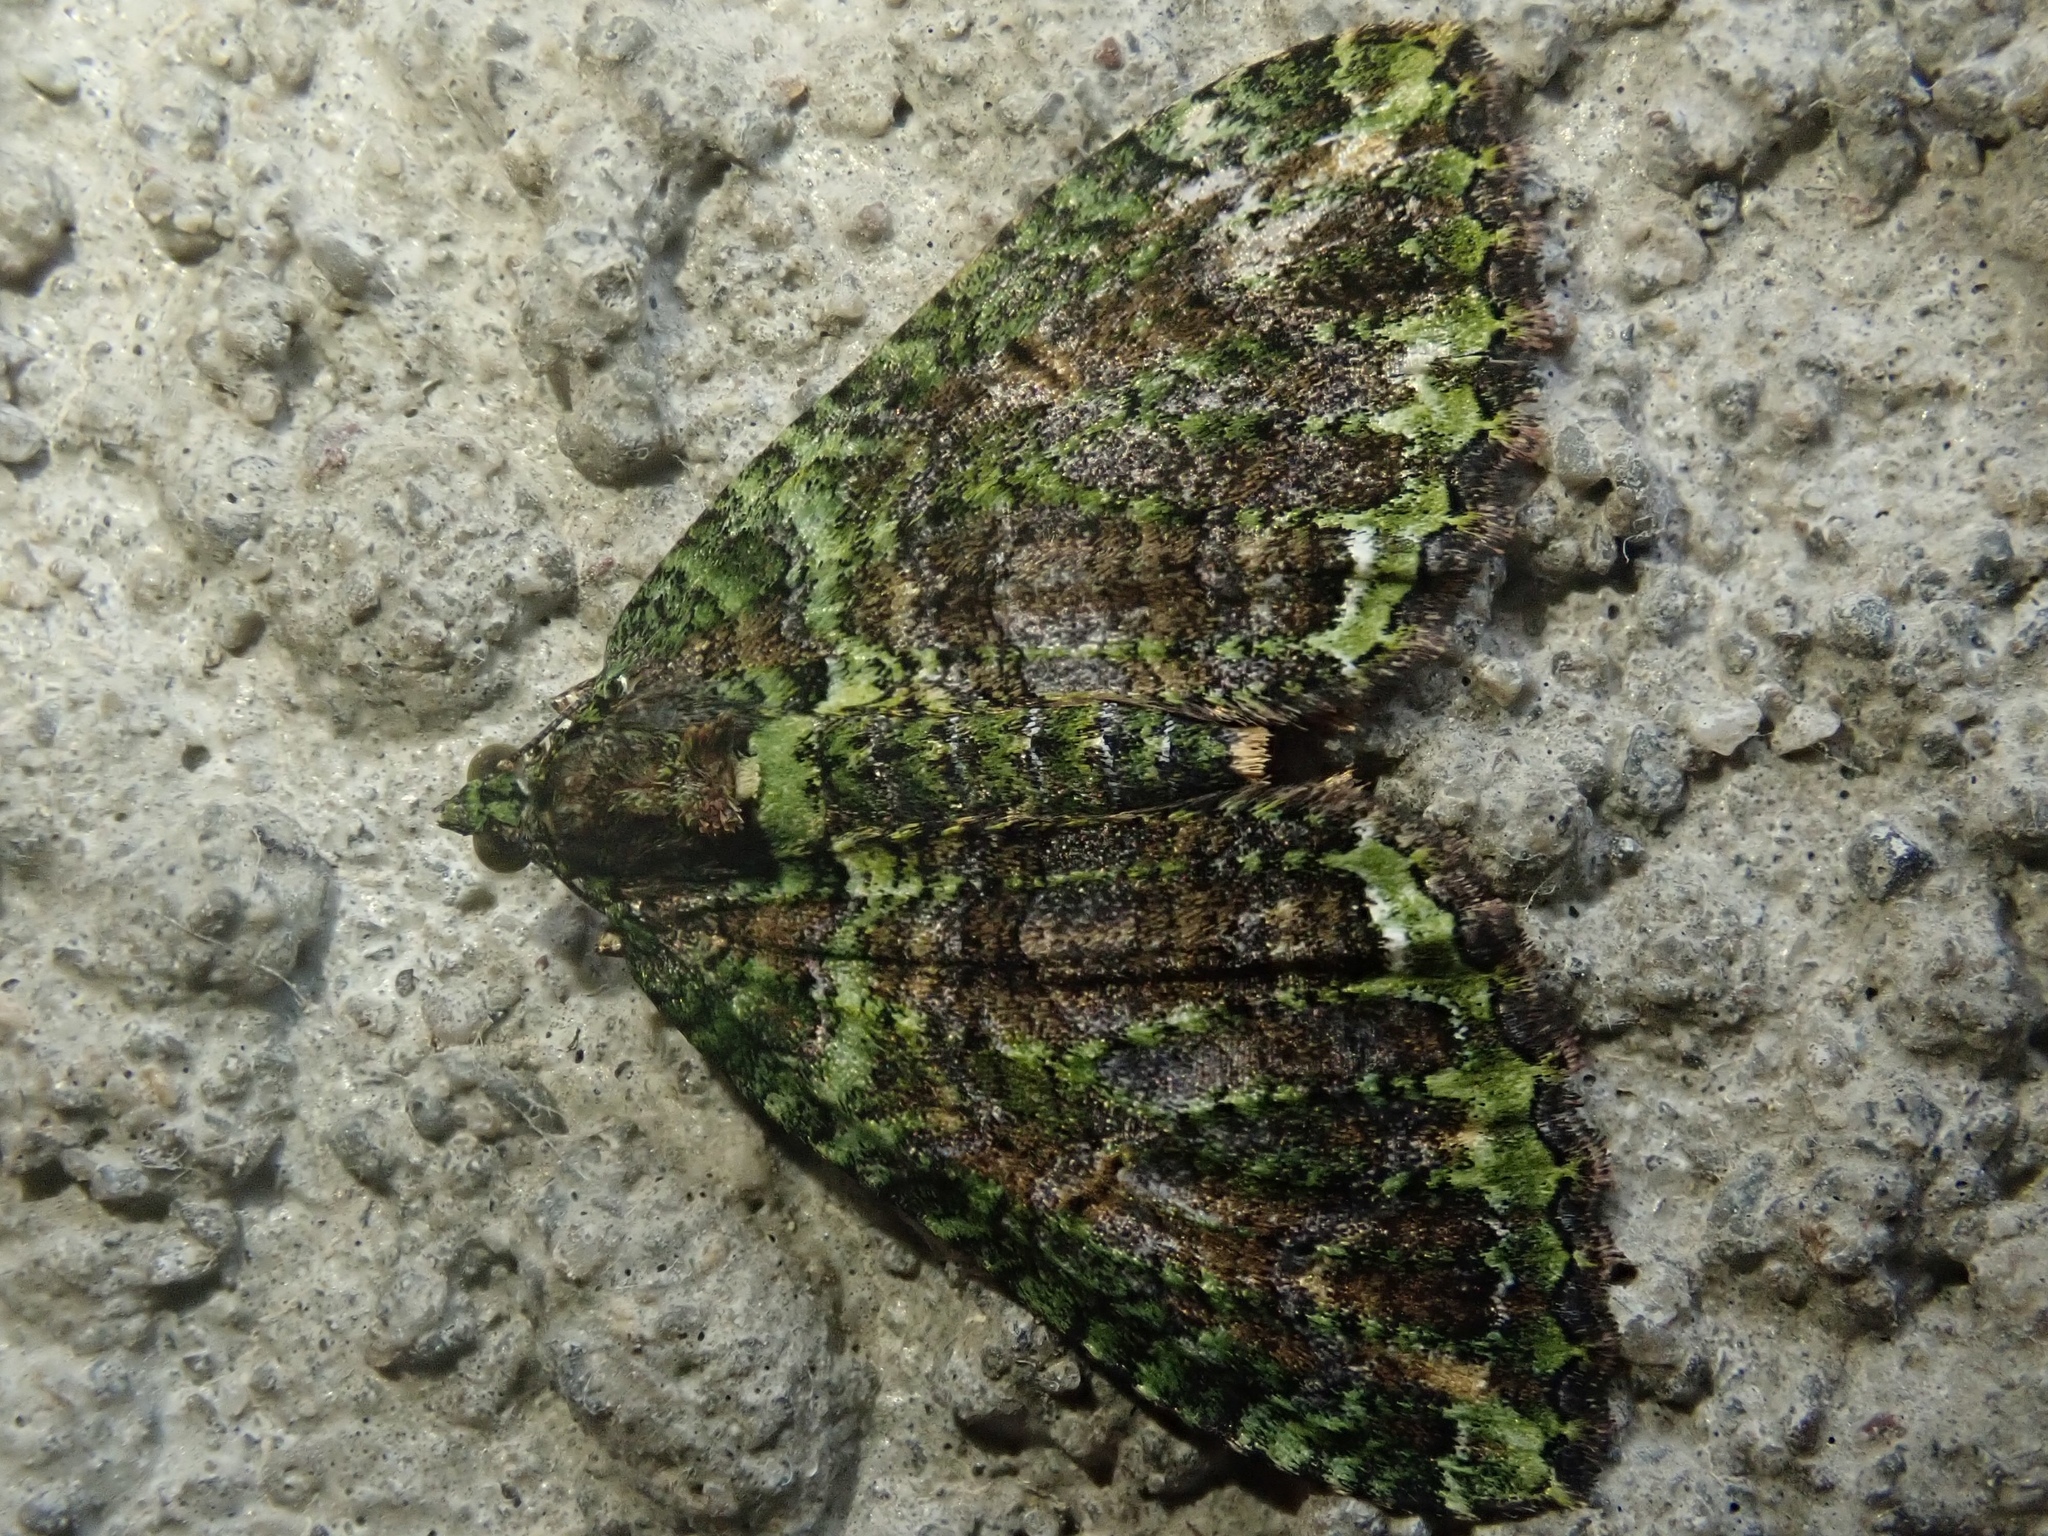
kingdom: Animalia
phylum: Arthropoda
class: Insecta
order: Lepidoptera
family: Geometridae
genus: Austrocidaria
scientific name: Austrocidaria similata
